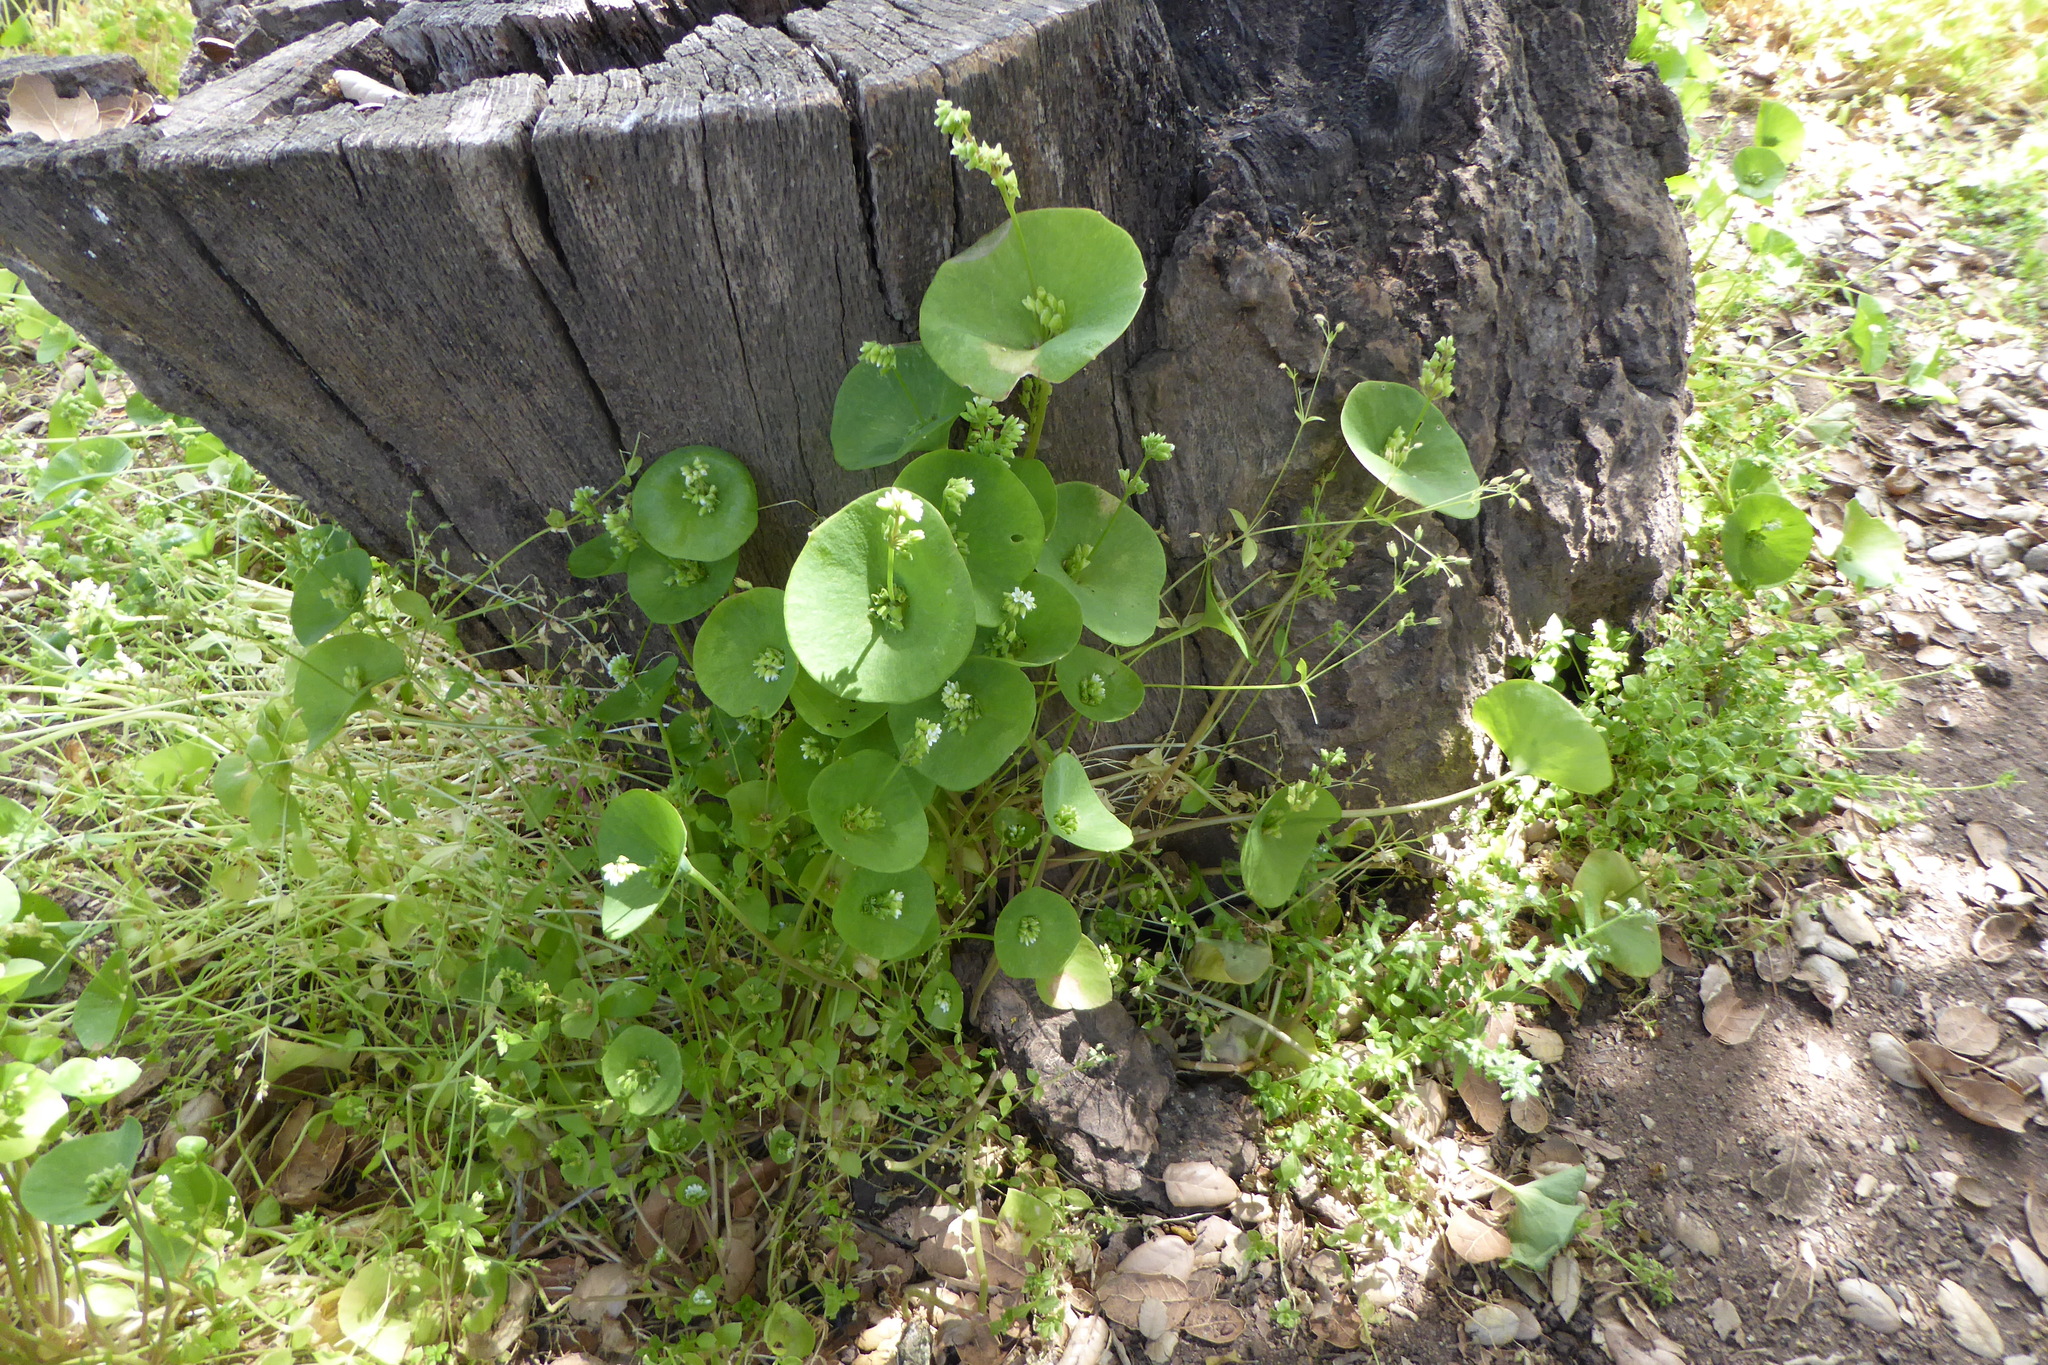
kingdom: Plantae
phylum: Tracheophyta
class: Magnoliopsida
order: Caryophyllales
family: Montiaceae
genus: Claytonia
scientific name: Claytonia perfoliata
